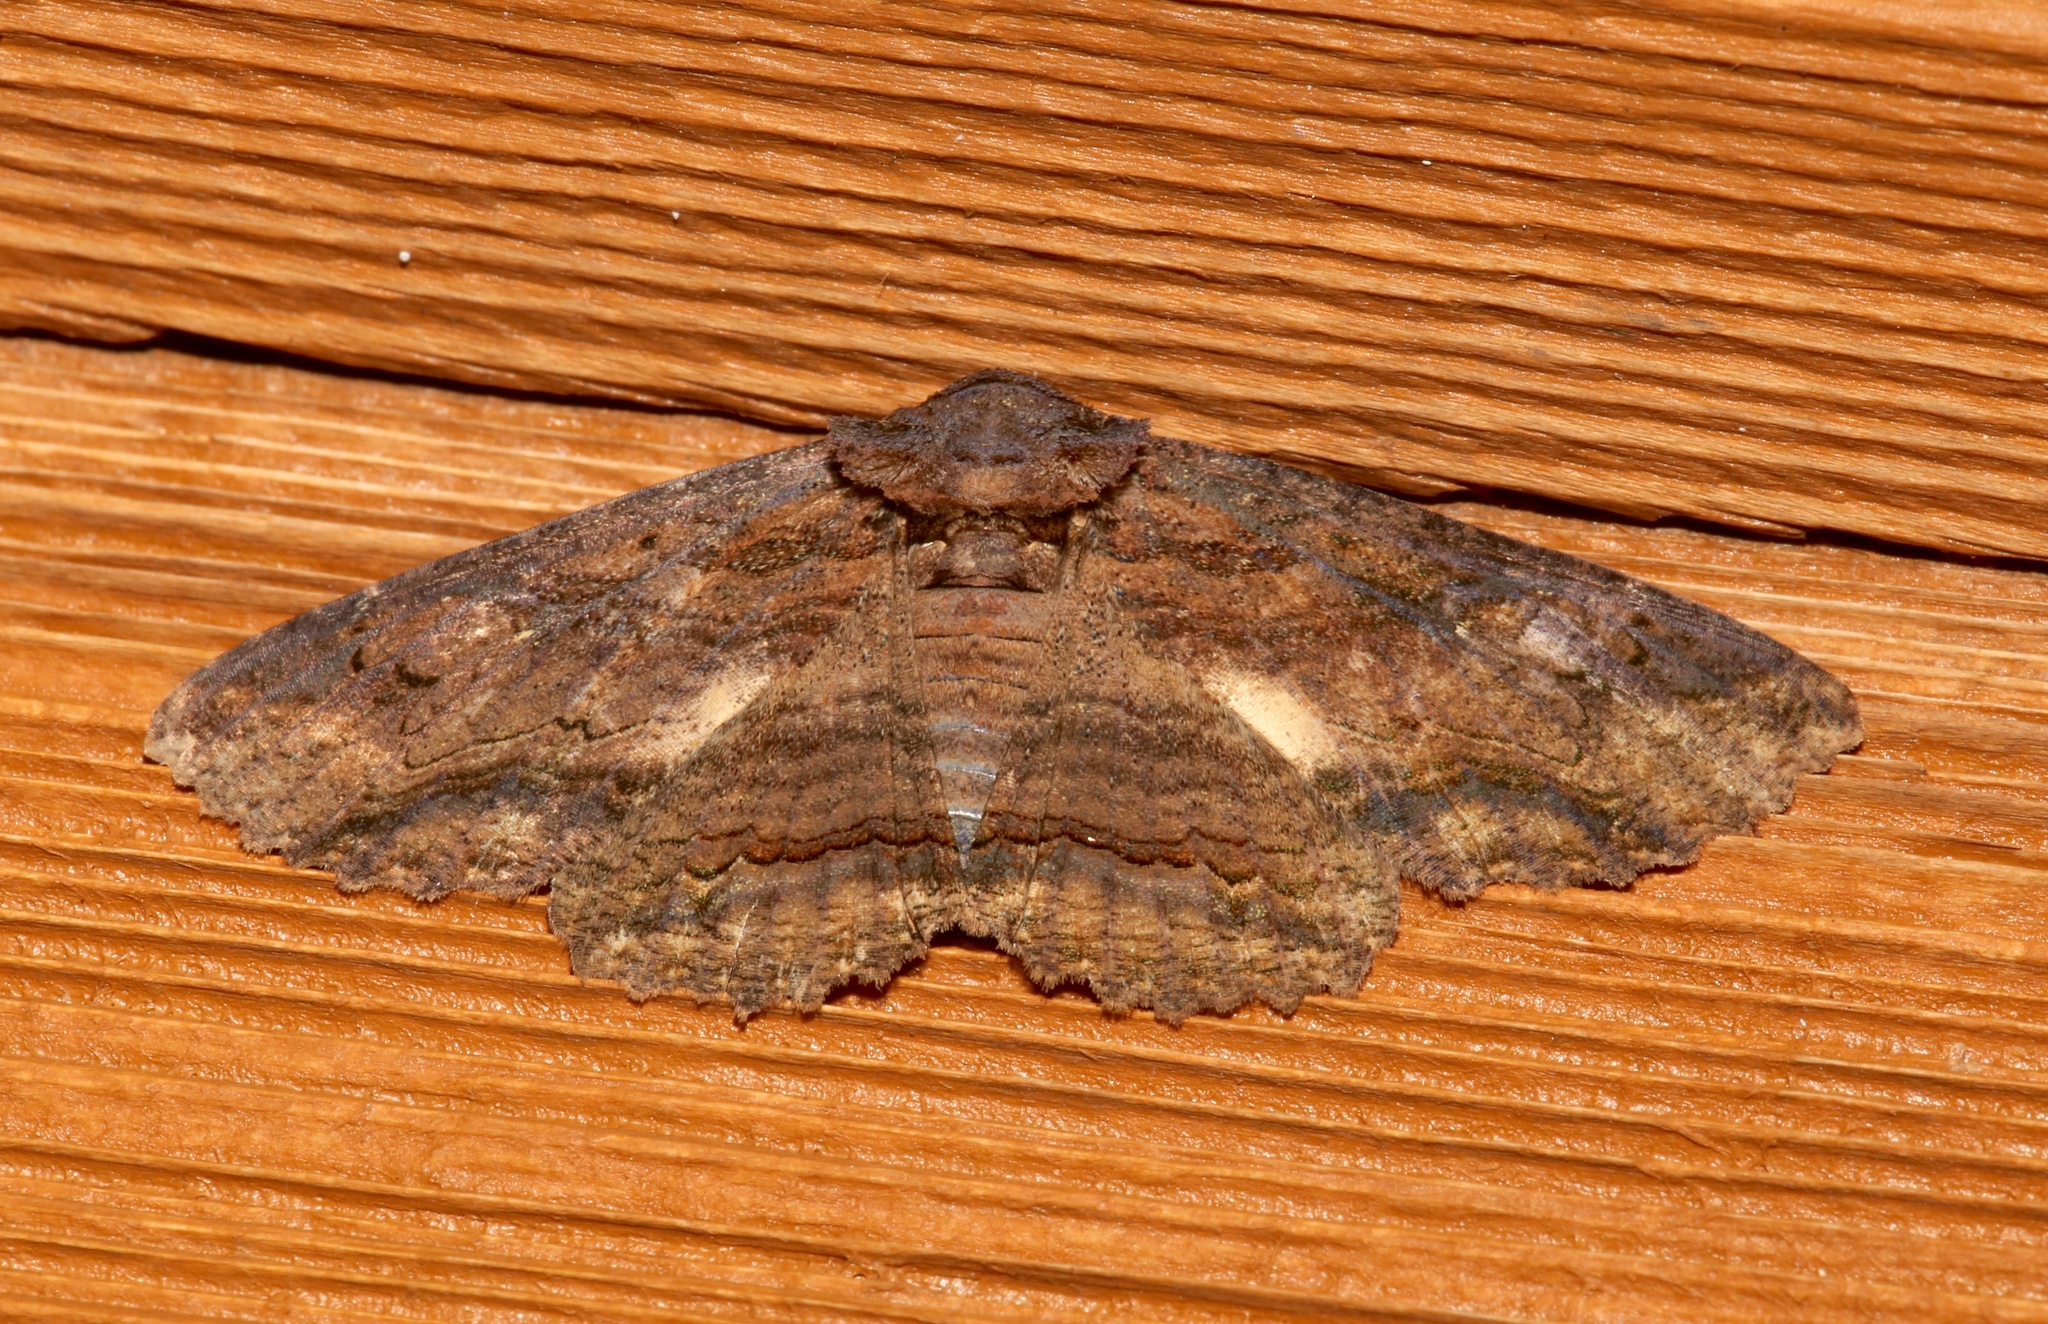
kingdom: Animalia
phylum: Arthropoda
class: Insecta
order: Lepidoptera
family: Erebidae
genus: Zale
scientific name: Zale lunata
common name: Lunate zale moth
